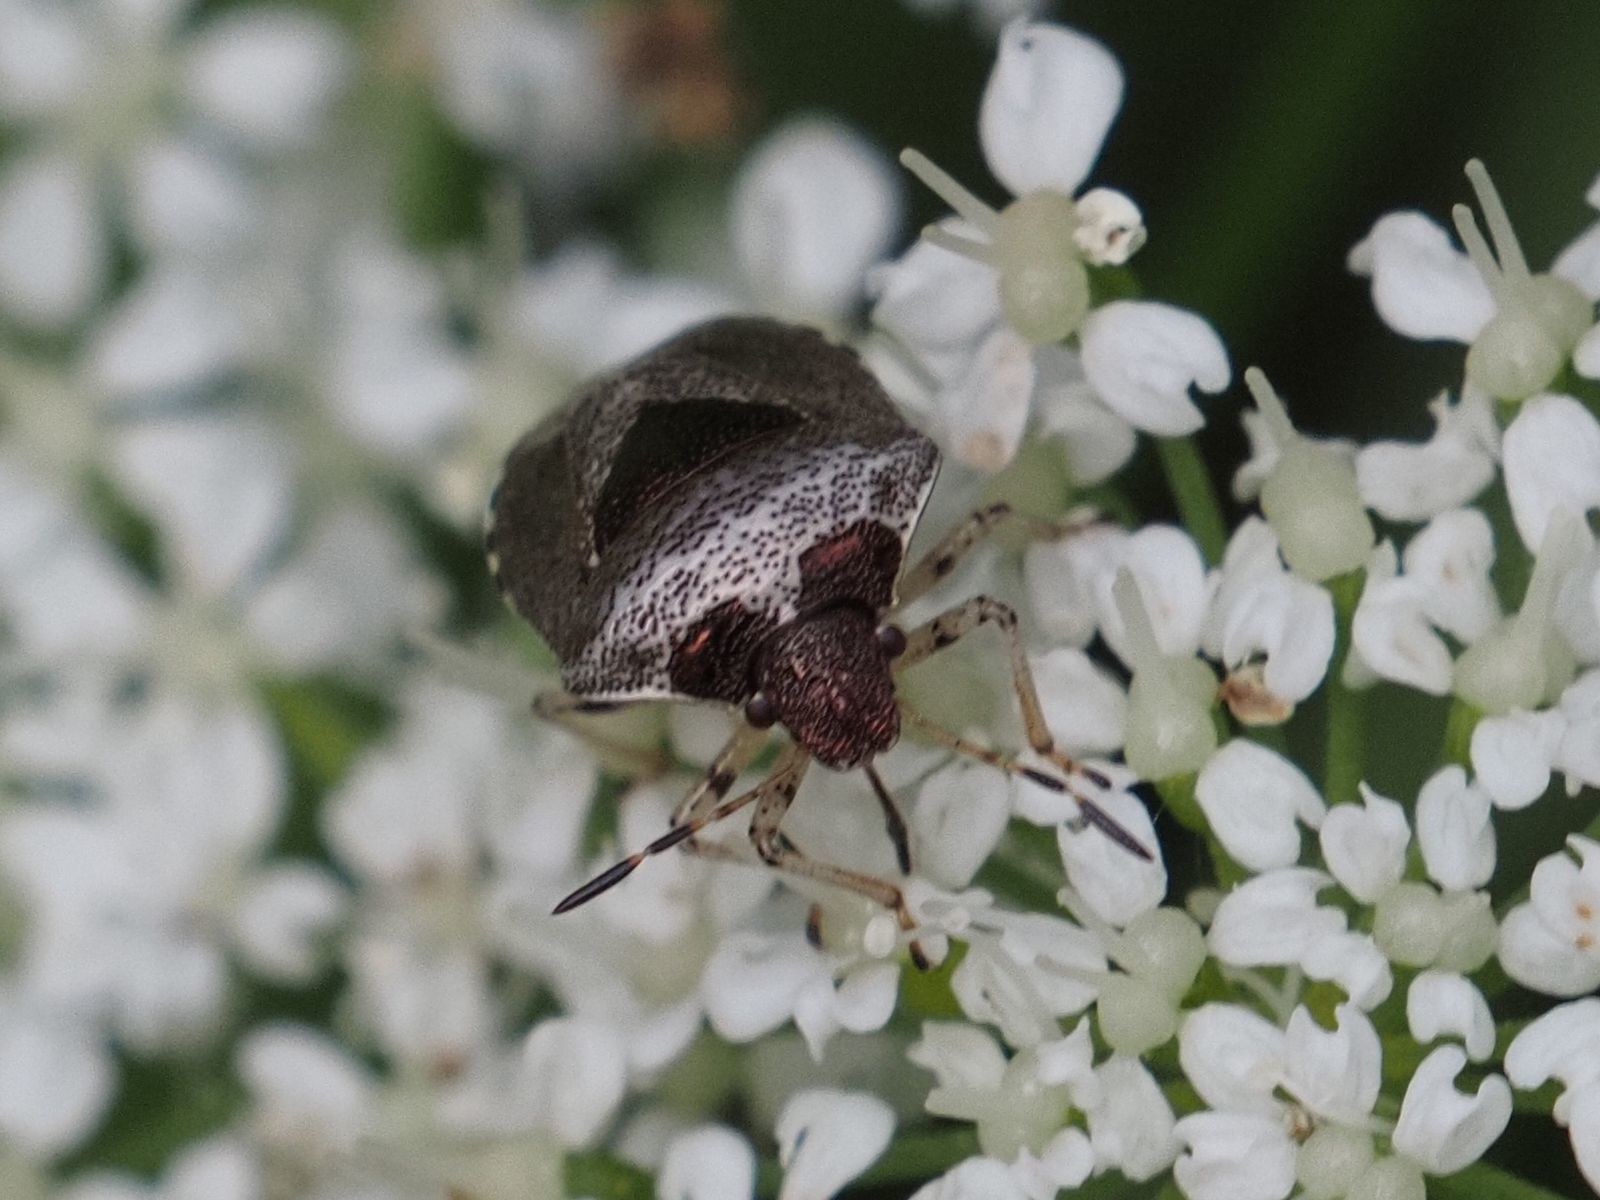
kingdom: Animalia
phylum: Arthropoda
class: Insecta
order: Hemiptera
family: Pentatomidae
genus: Eysarcoris
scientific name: Eysarcoris venustissimus
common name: Woundwort shieldbug
